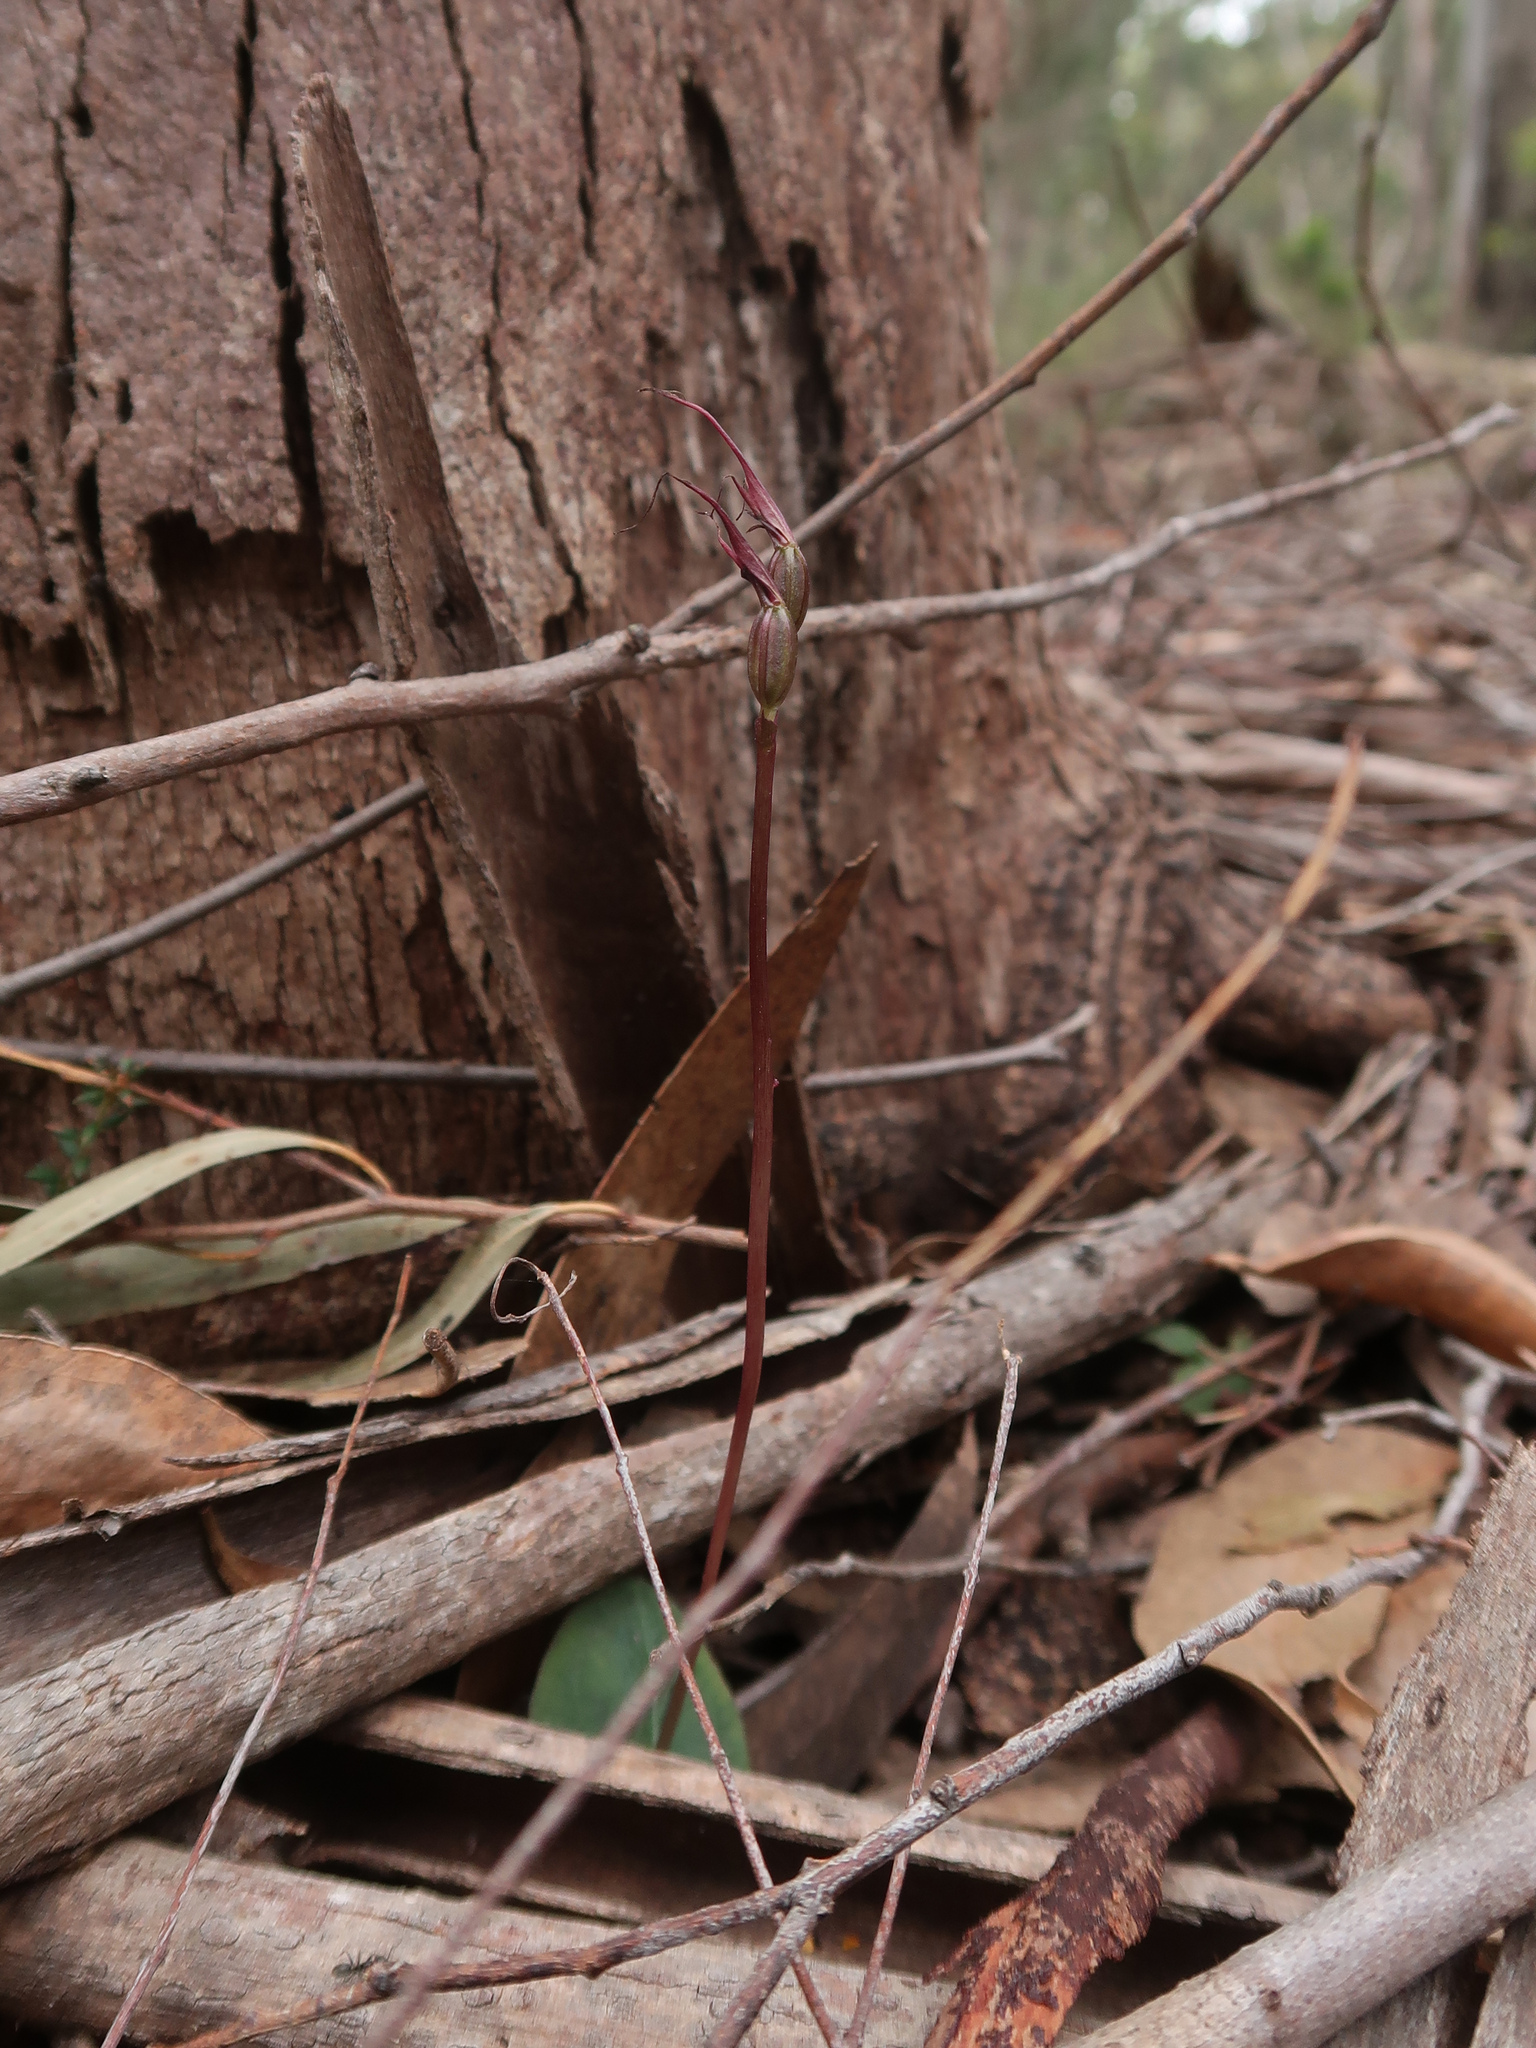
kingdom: Plantae
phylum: Tracheophyta
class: Liliopsida
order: Asparagales
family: Orchidaceae
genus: Acianthus
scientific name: Acianthus caudatus
